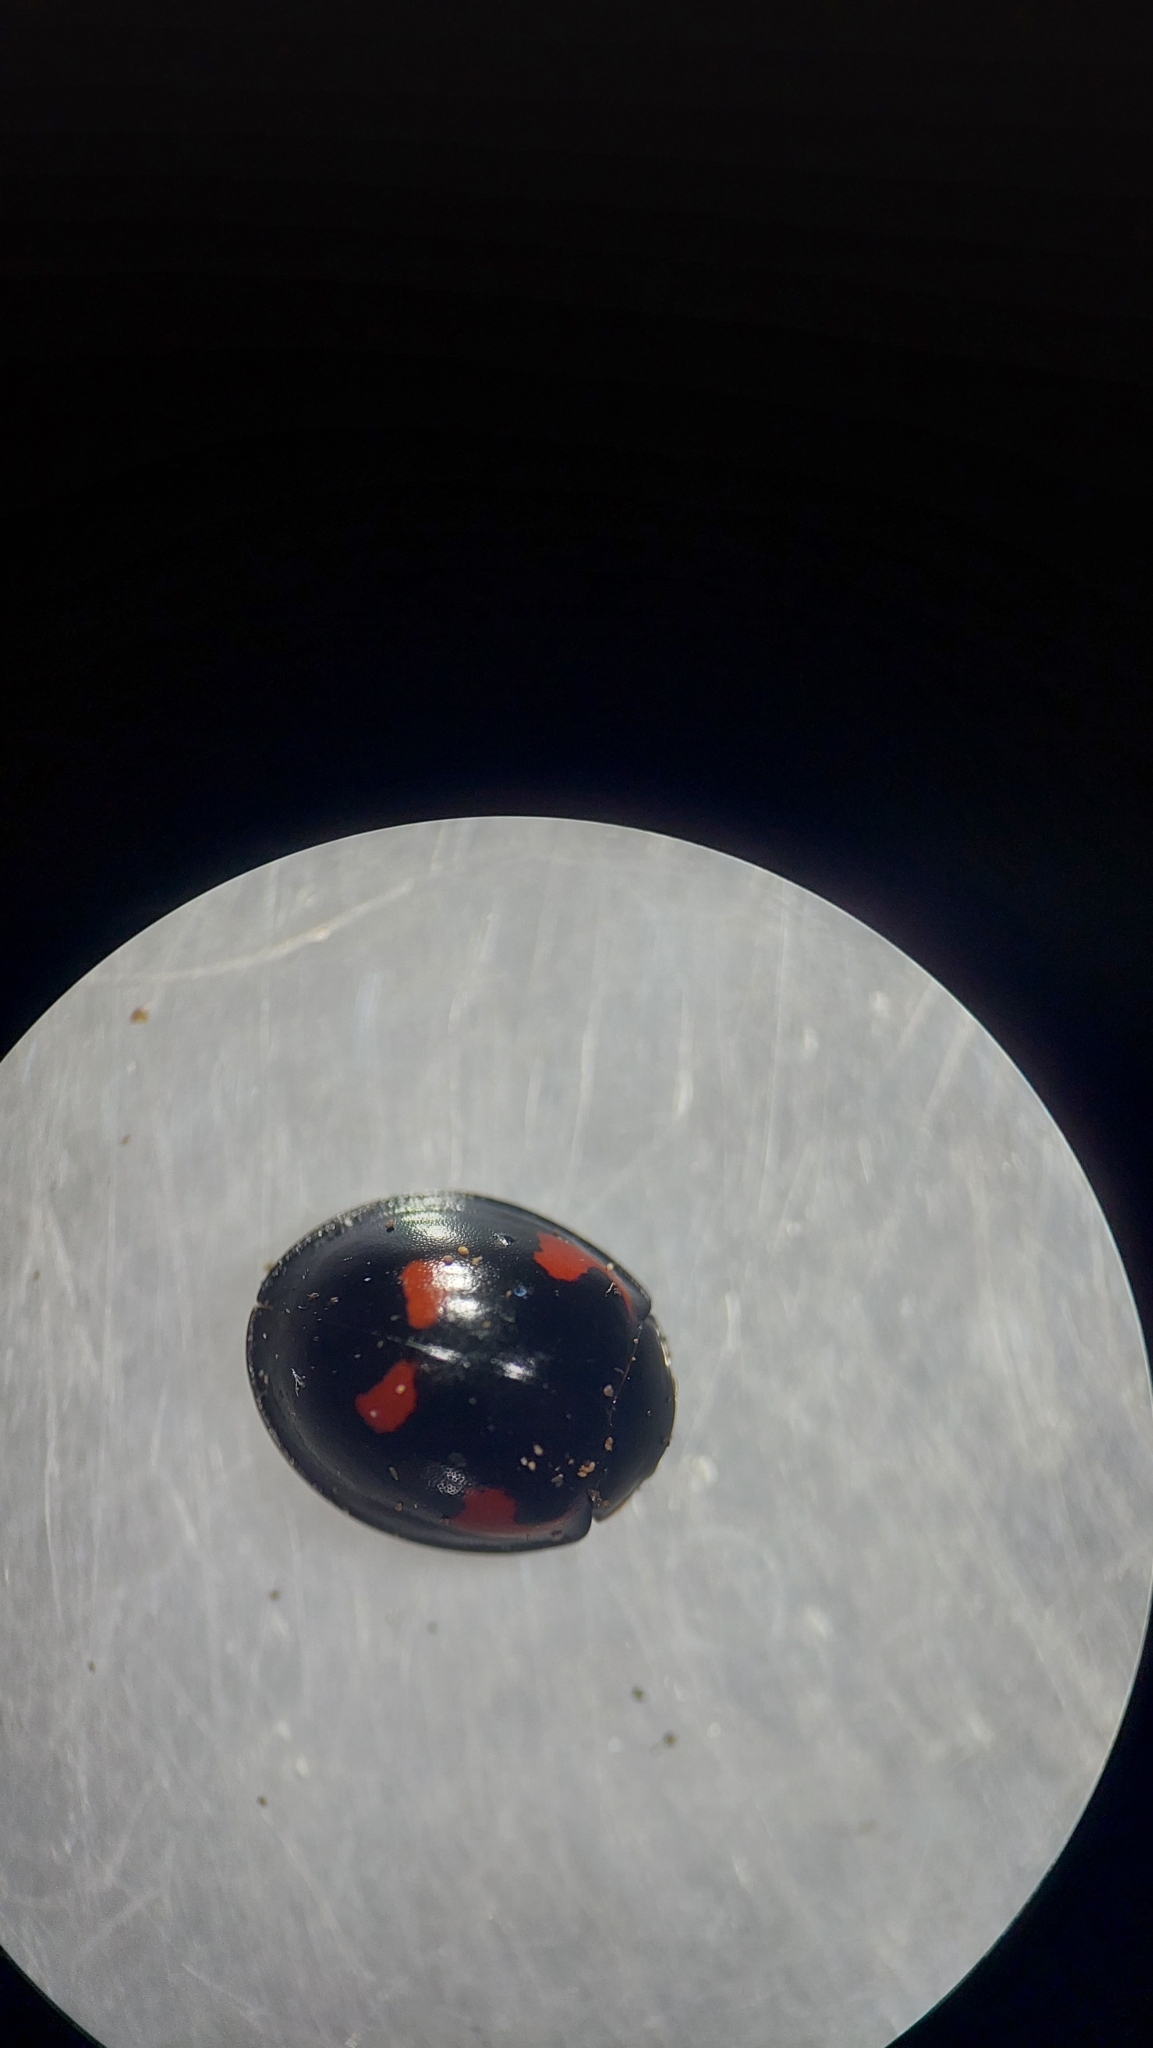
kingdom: Animalia
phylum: Arthropoda
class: Insecta
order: Coleoptera
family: Coccinellidae
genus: Brumus
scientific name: Brumus quadripustulatus
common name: Ladybird beetle
